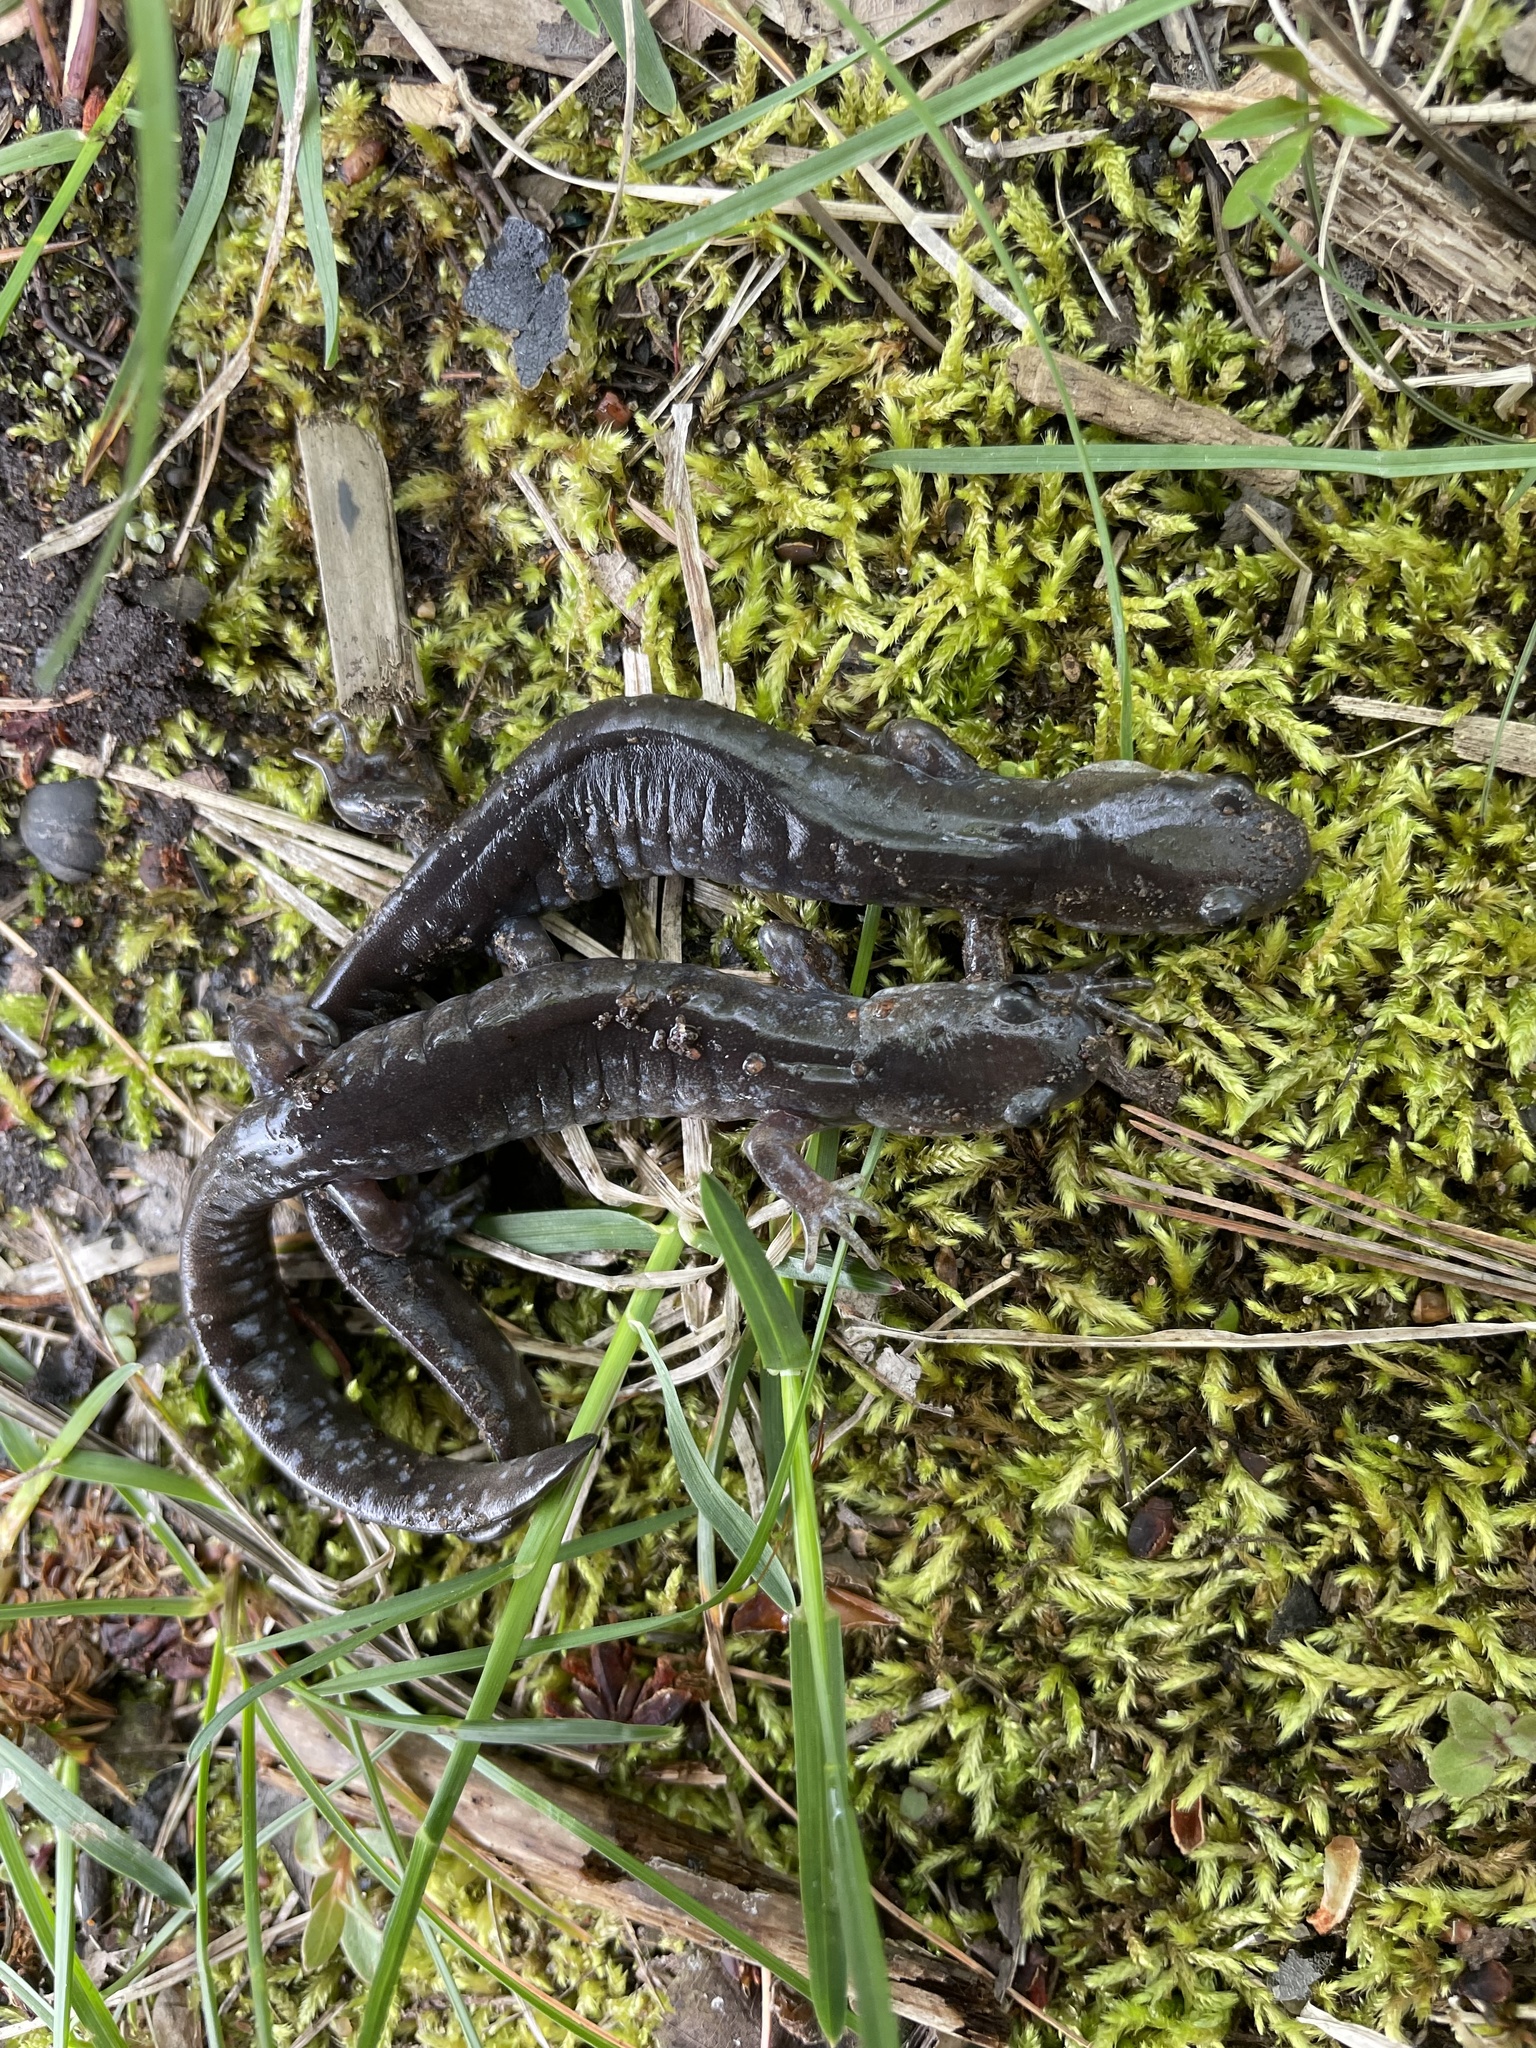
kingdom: Animalia
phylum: Chordata
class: Amphibia
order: Caudata
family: Ambystomatidae
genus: Ambystoma
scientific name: Ambystoma laterale
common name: Blue-spotted salamander
